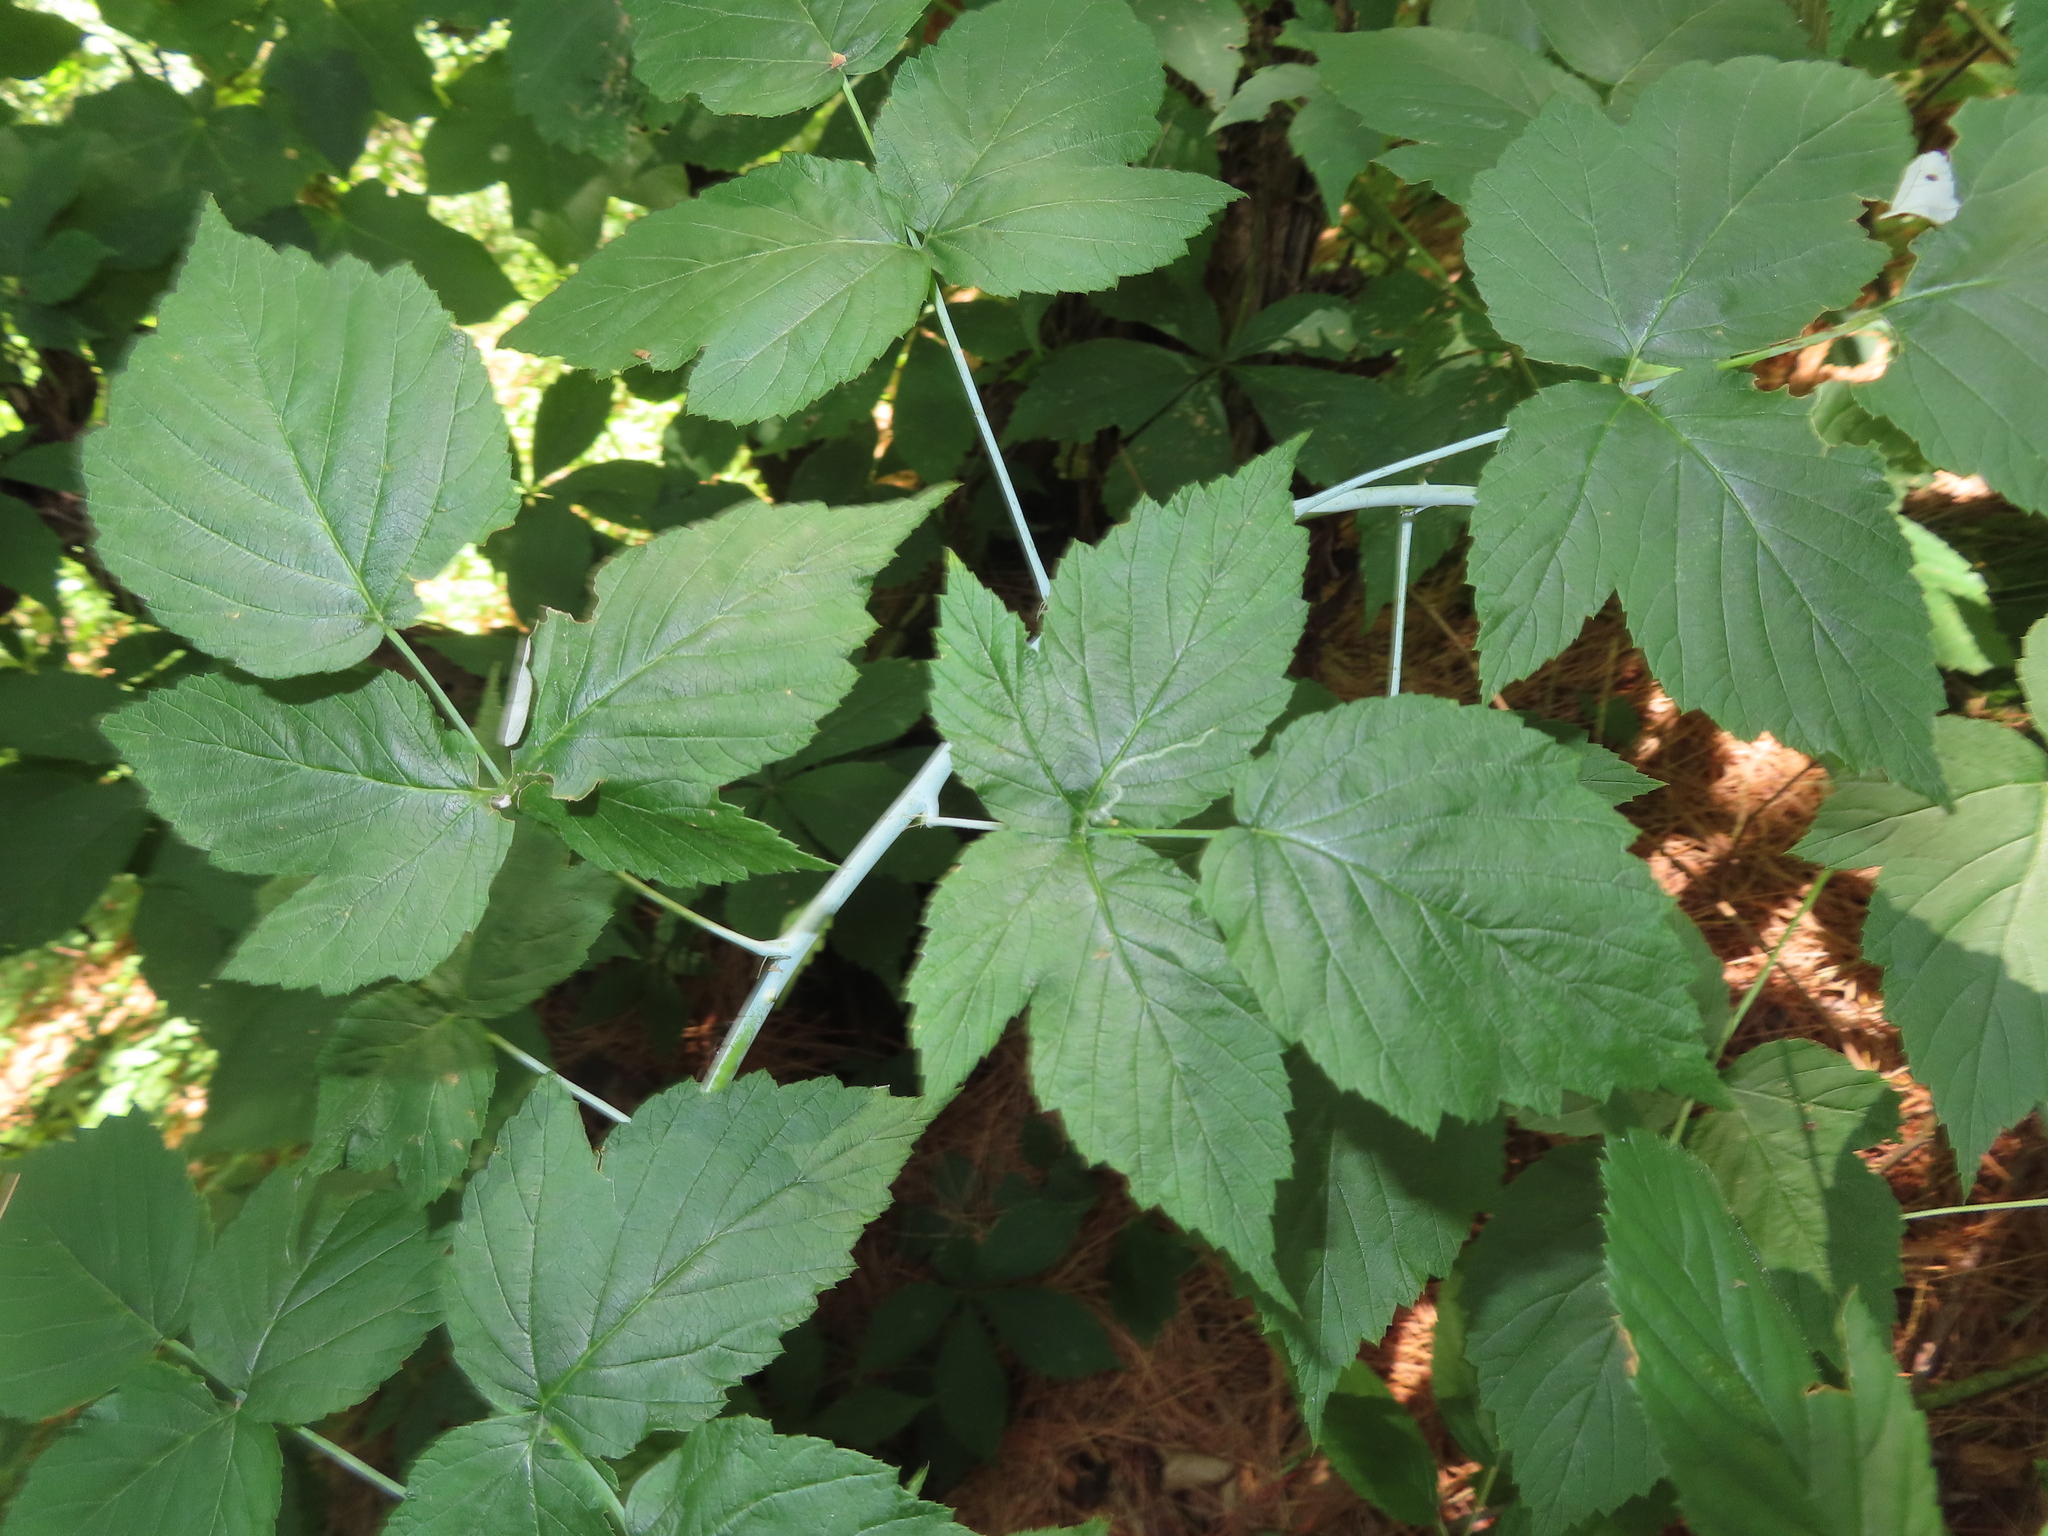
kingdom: Plantae
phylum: Tracheophyta
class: Magnoliopsida
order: Rosales
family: Rosaceae
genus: Rubus
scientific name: Rubus occidentalis
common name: Black raspberry
